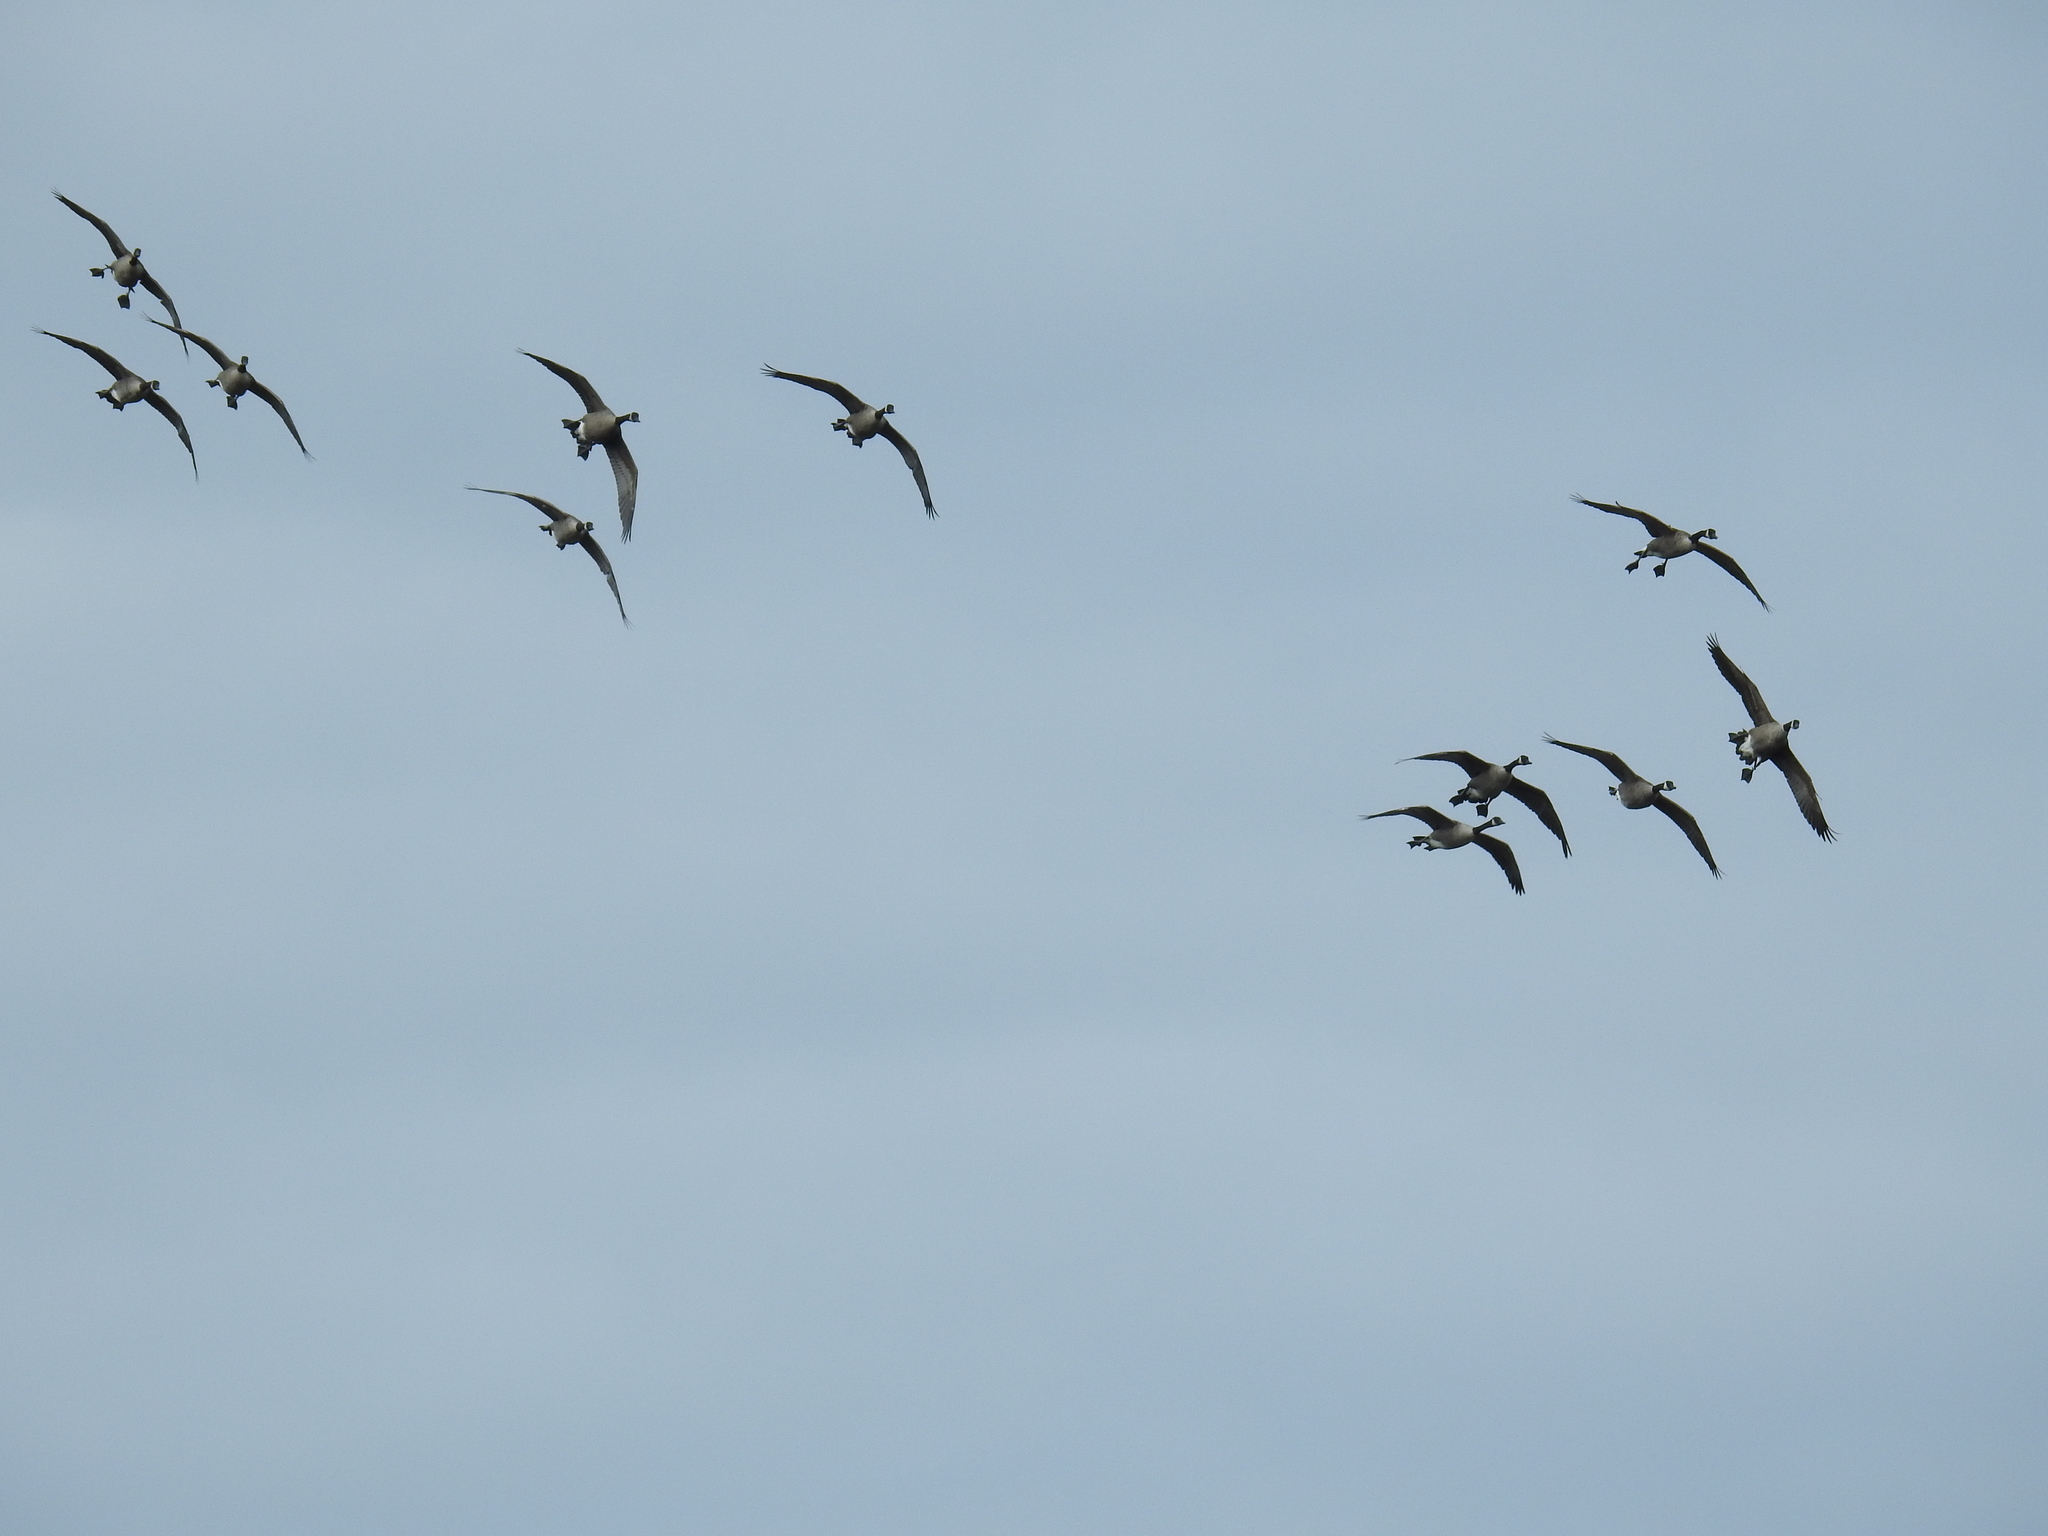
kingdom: Animalia
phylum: Chordata
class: Aves
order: Anseriformes
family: Anatidae
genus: Branta
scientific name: Branta canadensis
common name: Canada goose
